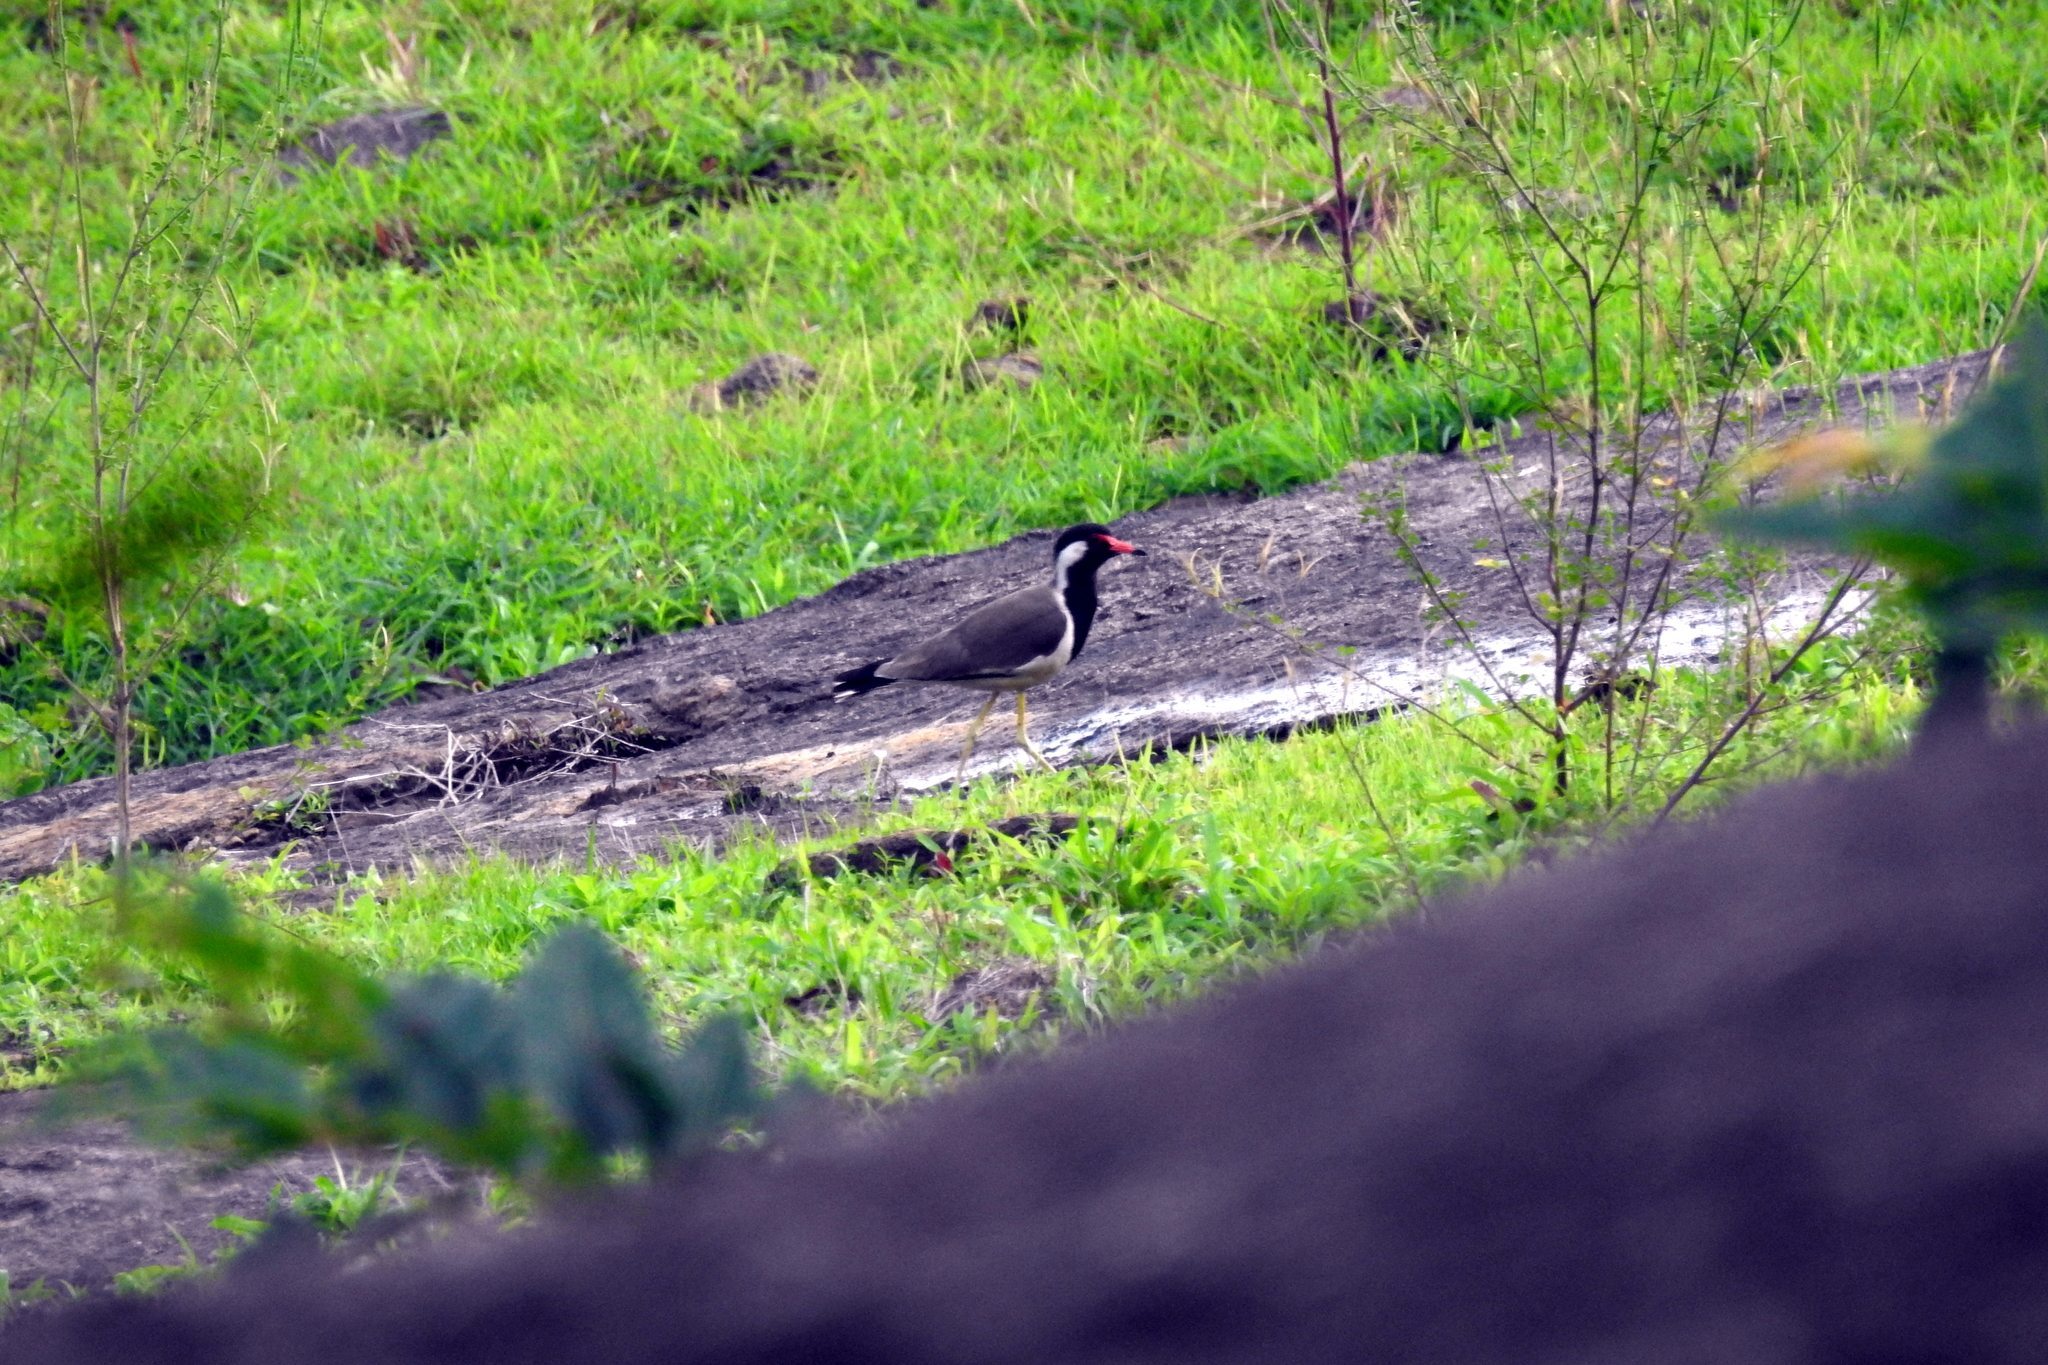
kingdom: Animalia
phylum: Chordata
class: Aves
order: Charadriiformes
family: Charadriidae
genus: Vanellus
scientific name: Vanellus indicus
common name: Red-wattled lapwing
